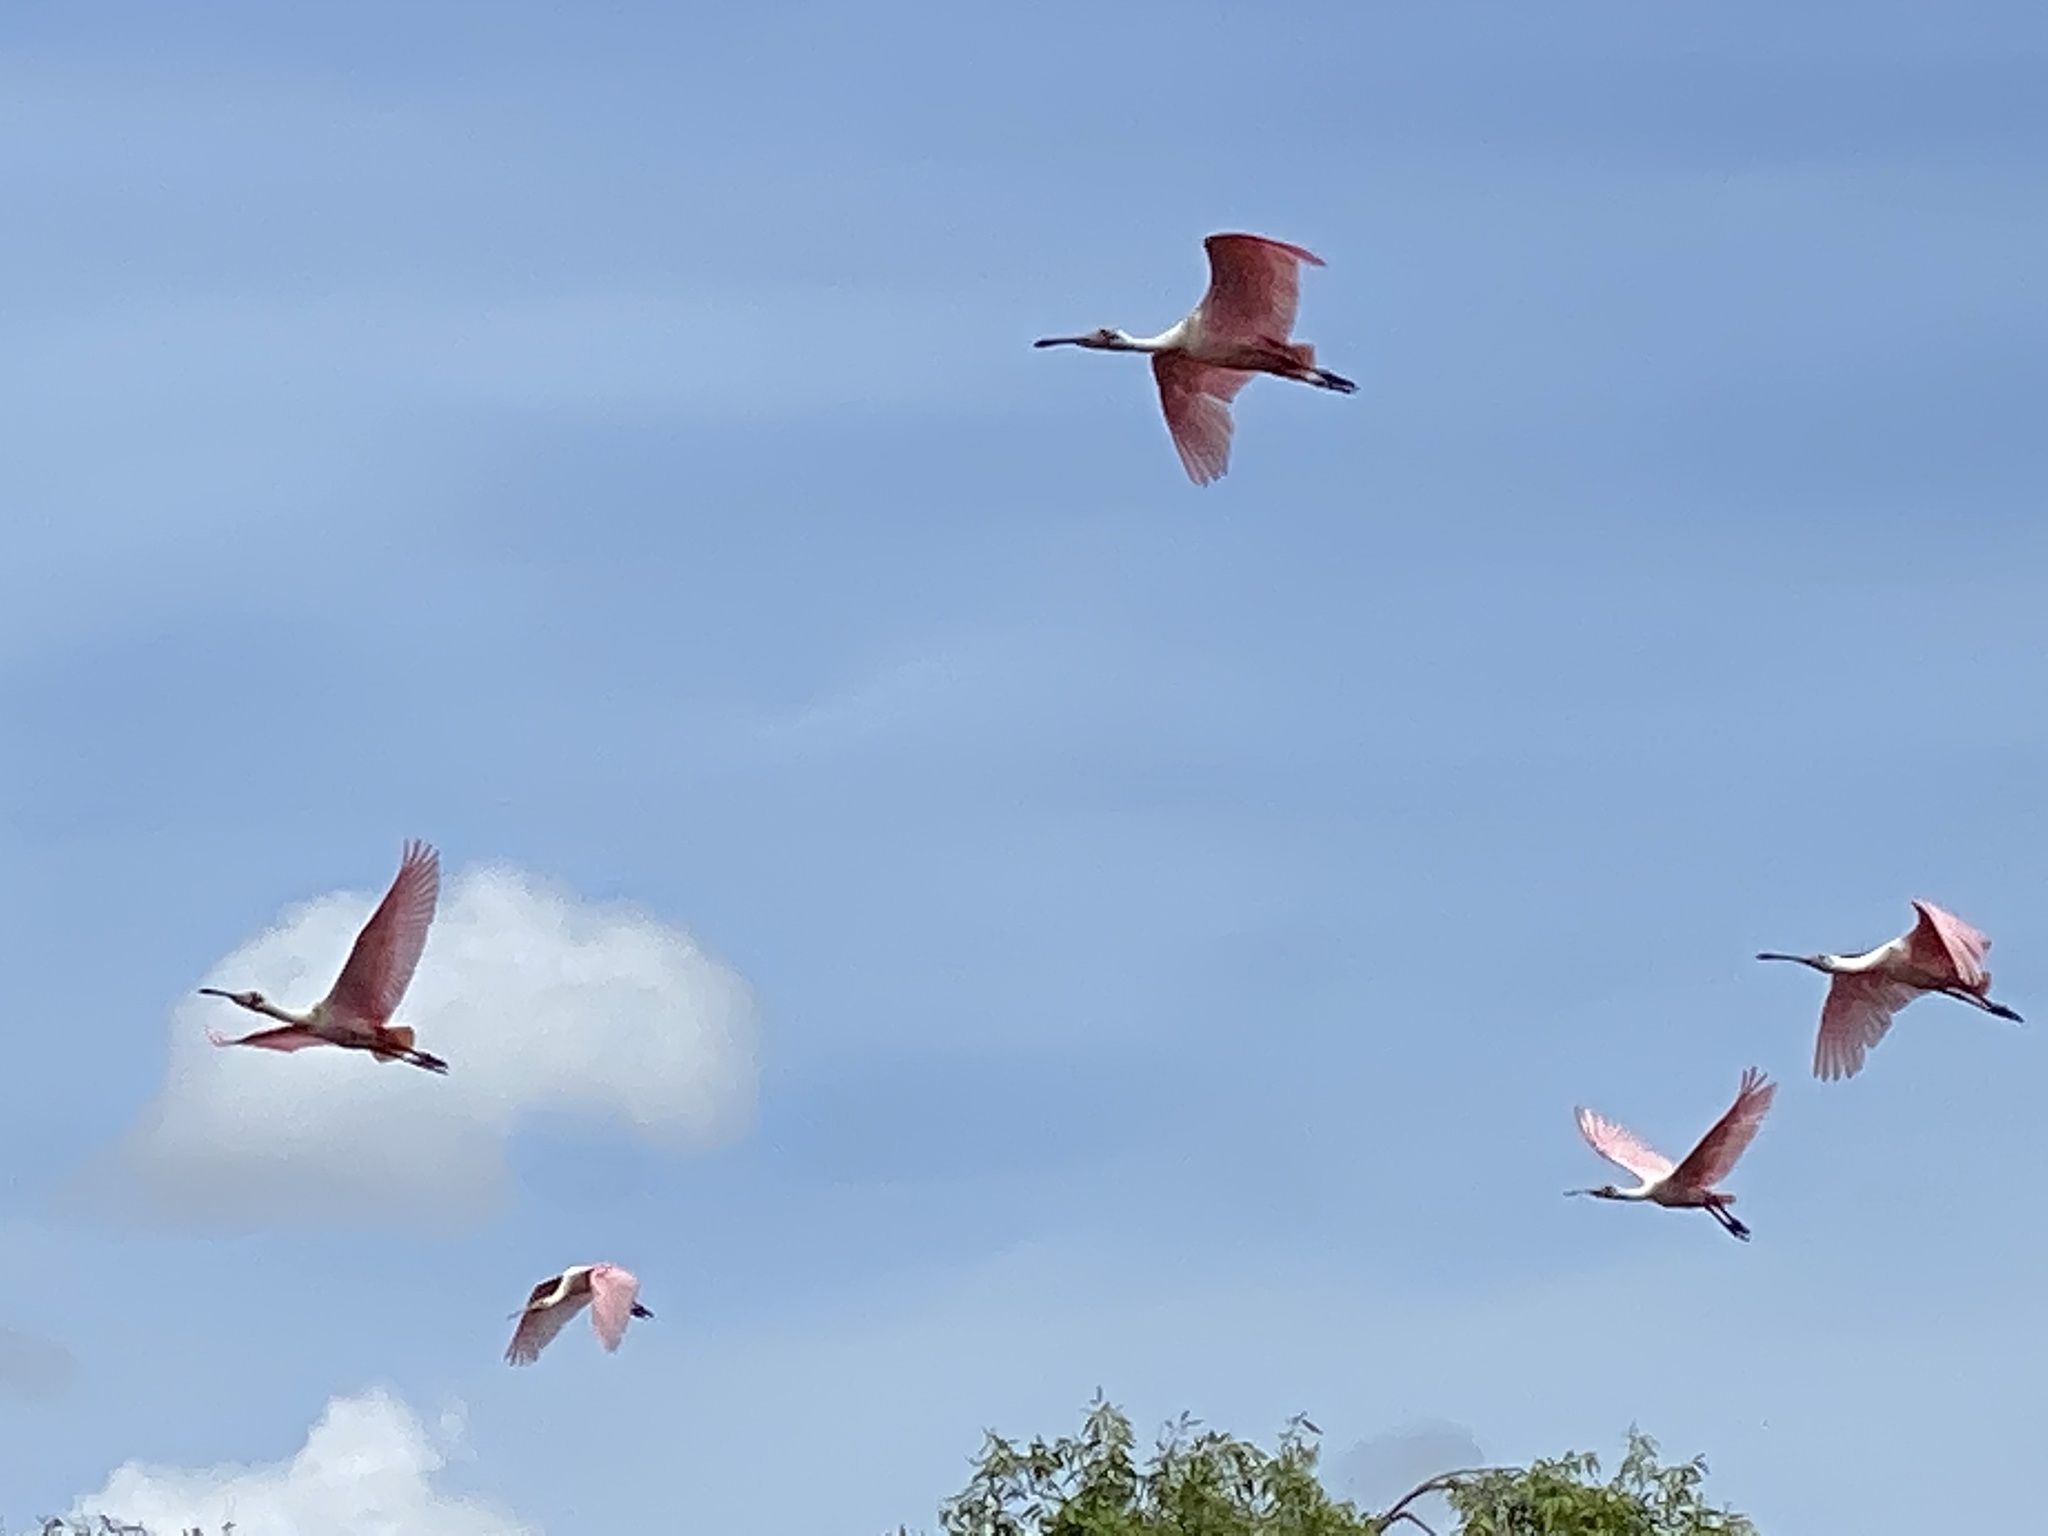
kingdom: Animalia
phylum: Chordata
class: Aves
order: Pelecaniformes
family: Threskiornithidae
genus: Platalea
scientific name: Platalea ajaja
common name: Roseate spoonbill
